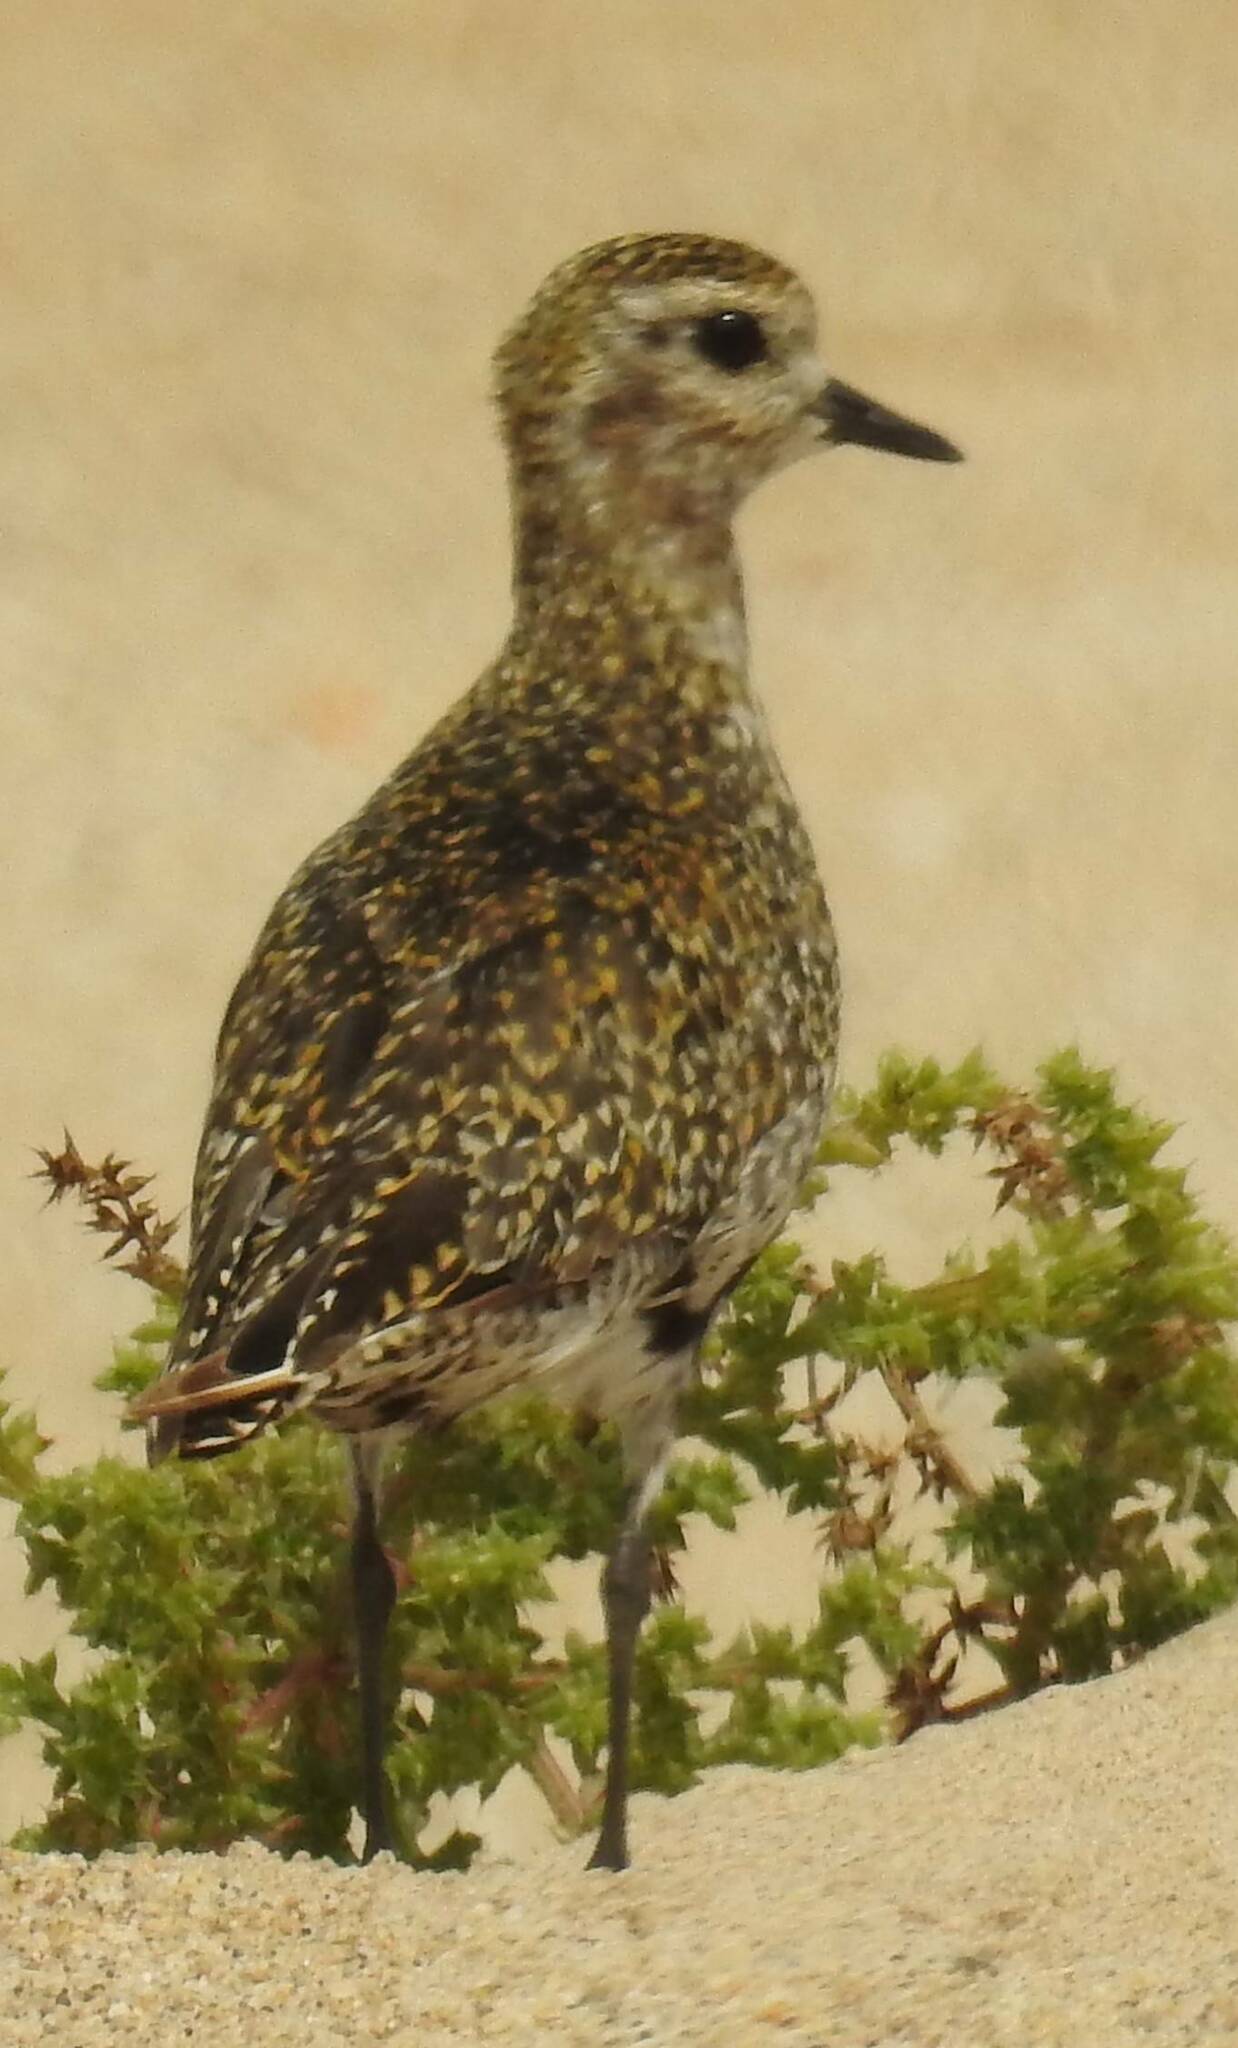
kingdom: Animalia
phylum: Chordata
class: Aves
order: Charadriiformes
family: Charadriidae
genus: Pluvialis
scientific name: Pluvialis apricaria
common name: European golden plover
